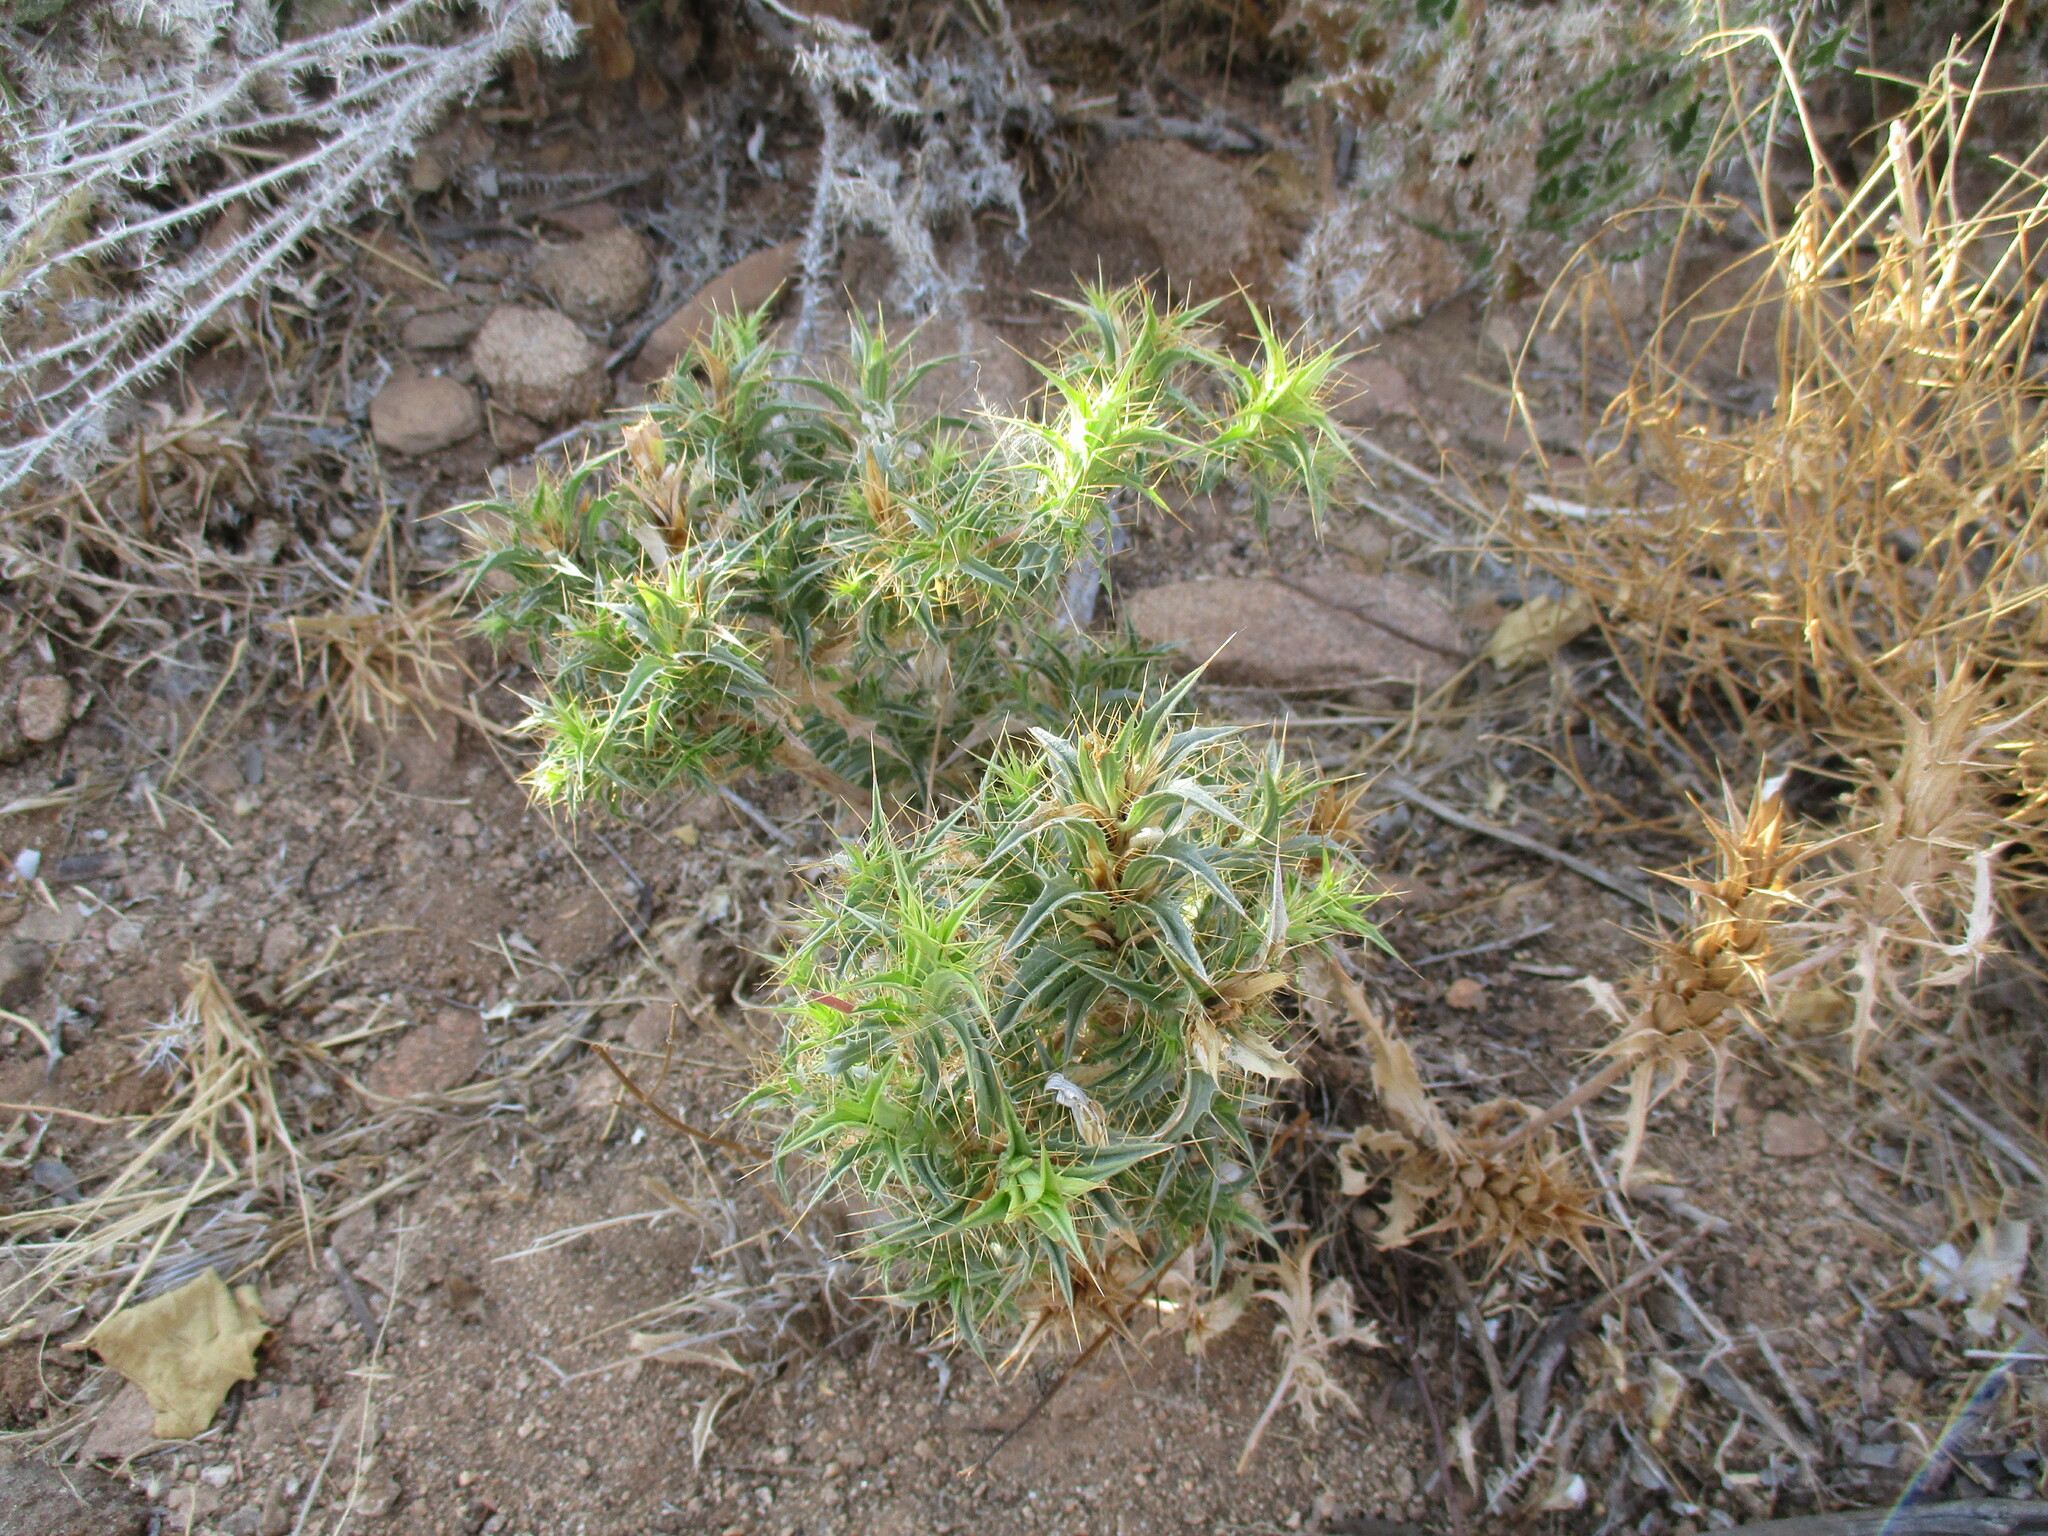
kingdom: Plantae
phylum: Tracheophyta
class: Magnoliopsida
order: Lamiales
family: Acanthaceae
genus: Blepharis
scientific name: Blepharis obmitrata
